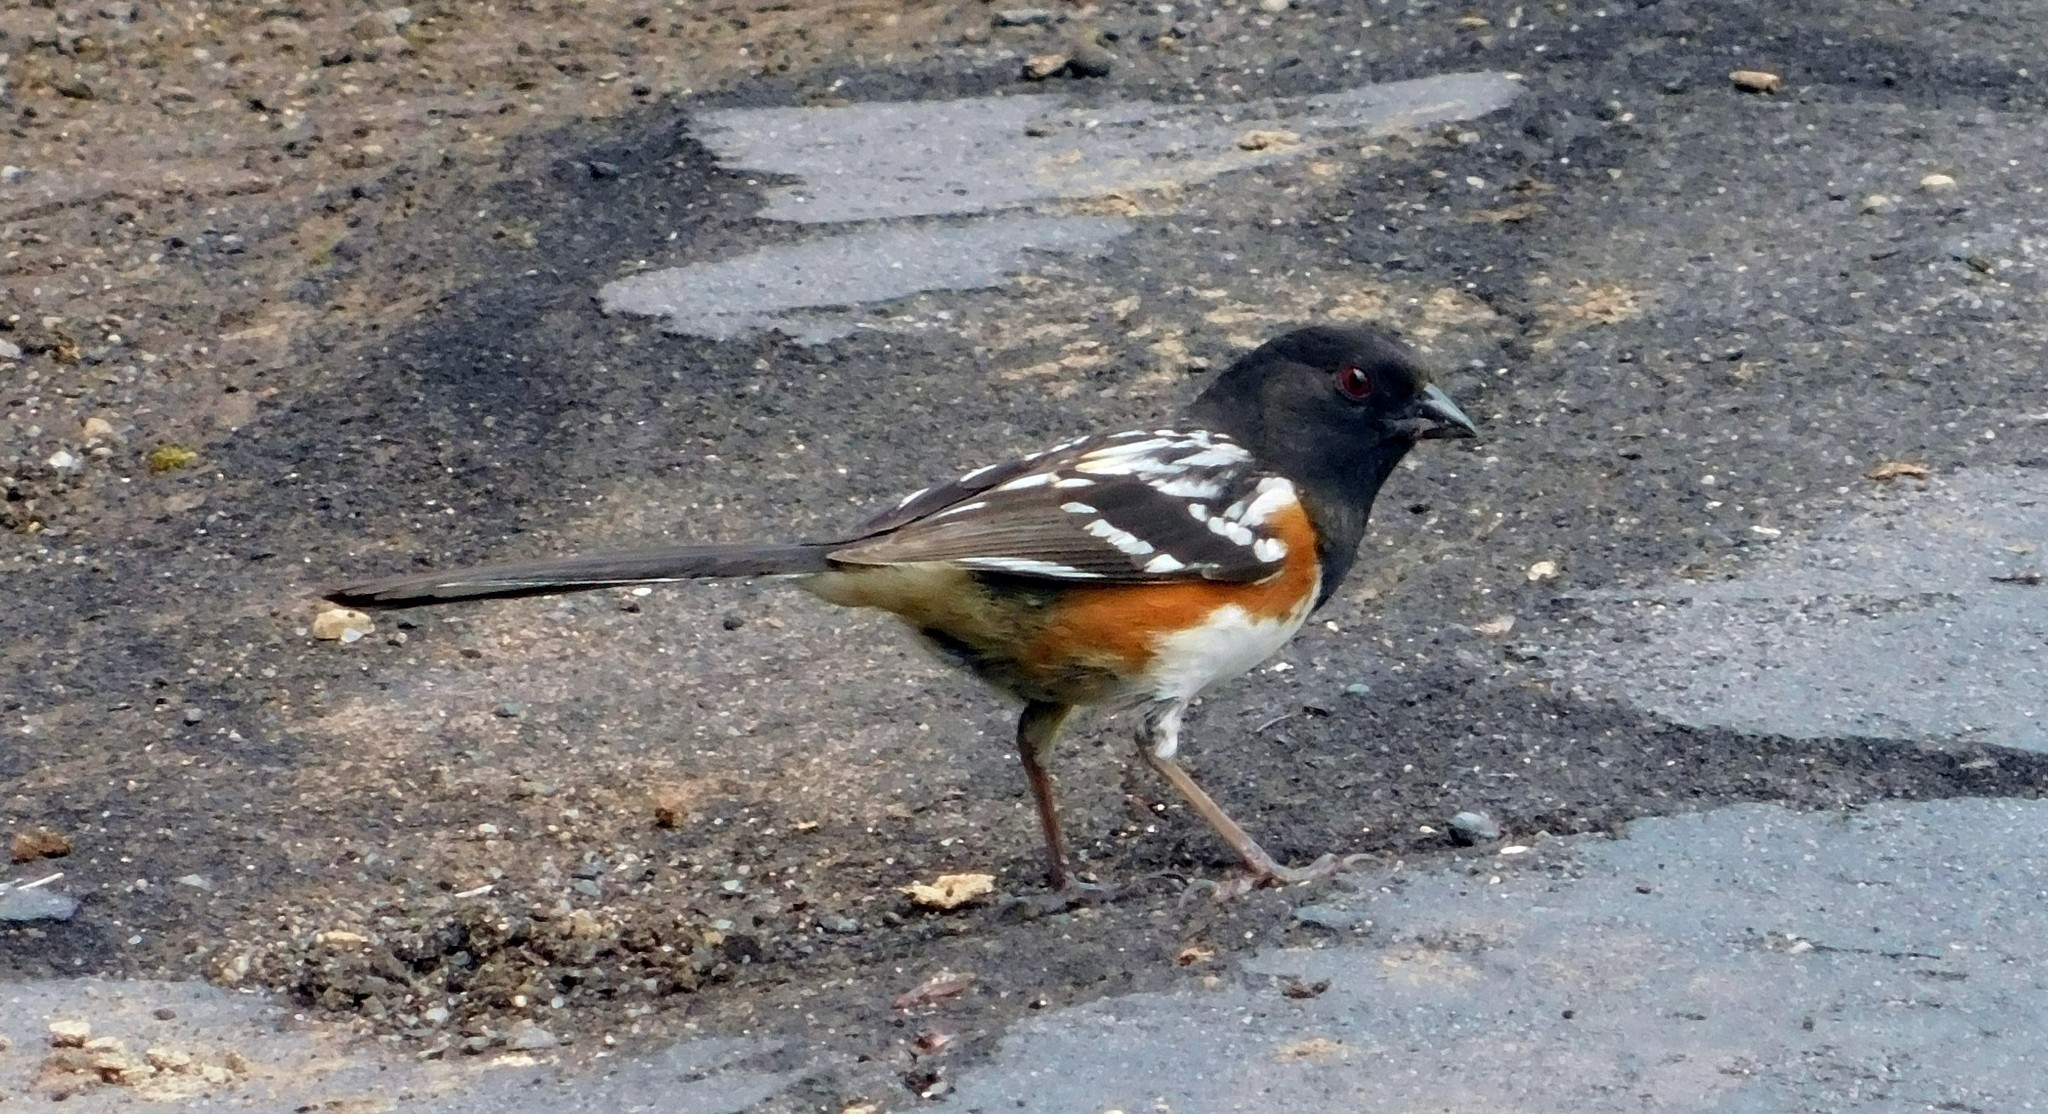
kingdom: Animalia
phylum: Chordata
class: Aves
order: Passeriformes
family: Passerellidae
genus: Pipilo
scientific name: Pipilo maculatus
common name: Spotted towhee
